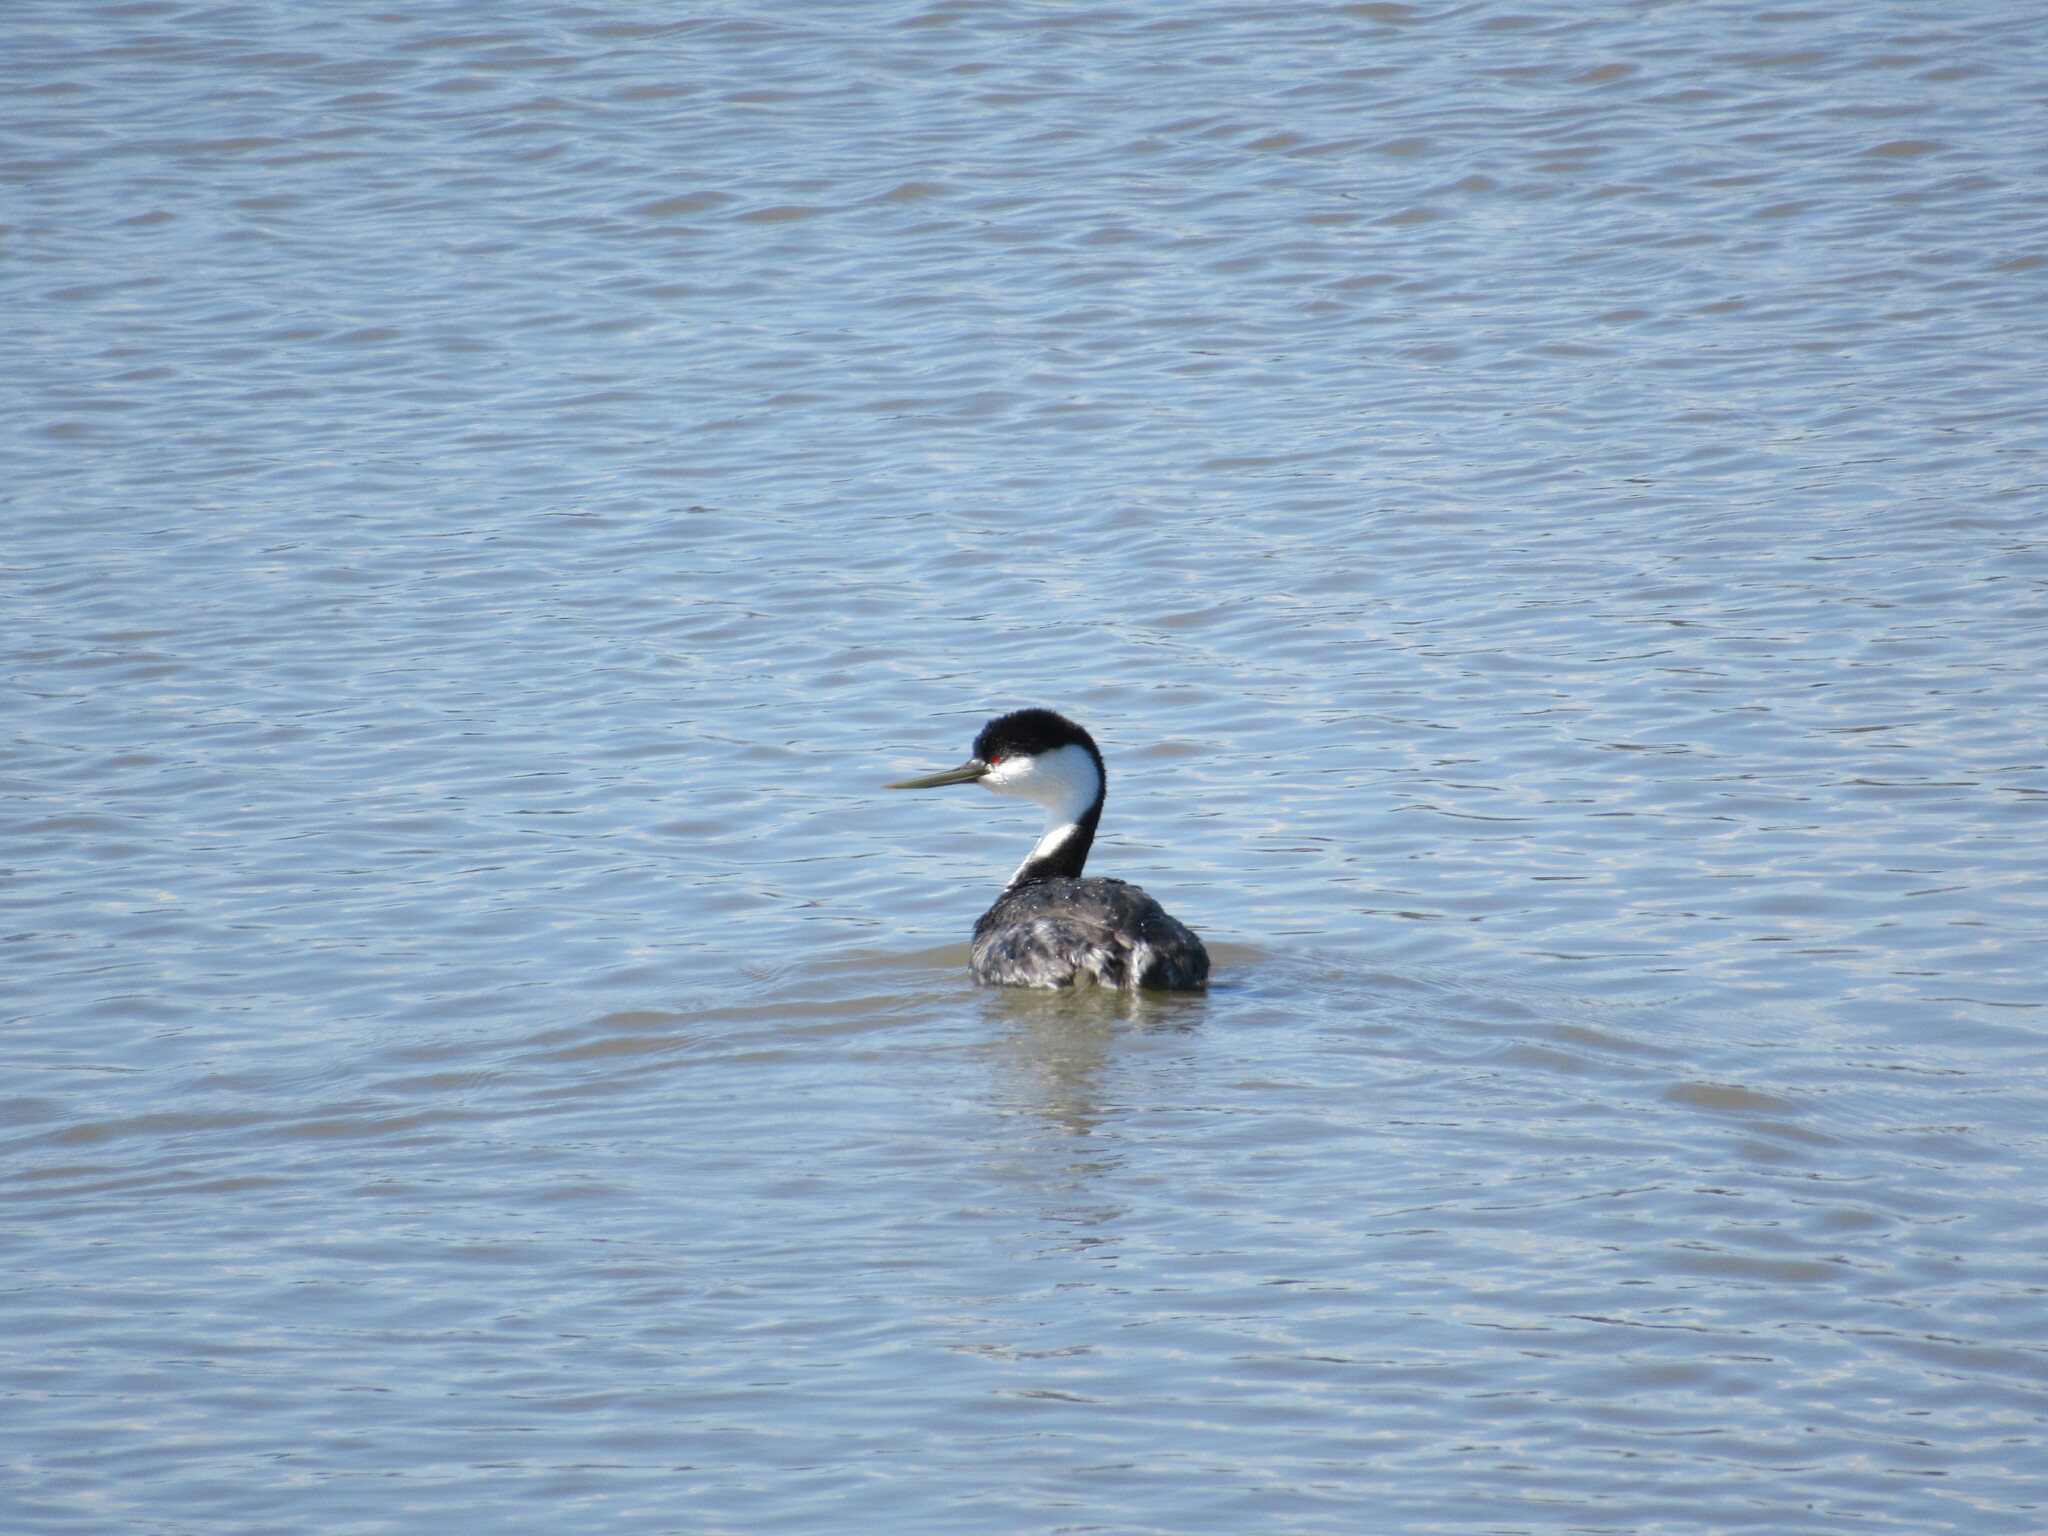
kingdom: Animalia
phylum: Chordata
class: Aves
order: Podicipediformes
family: Podicipedidae
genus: Aechmophorus
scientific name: Aechmophorus occidentalis
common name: Western grebe
